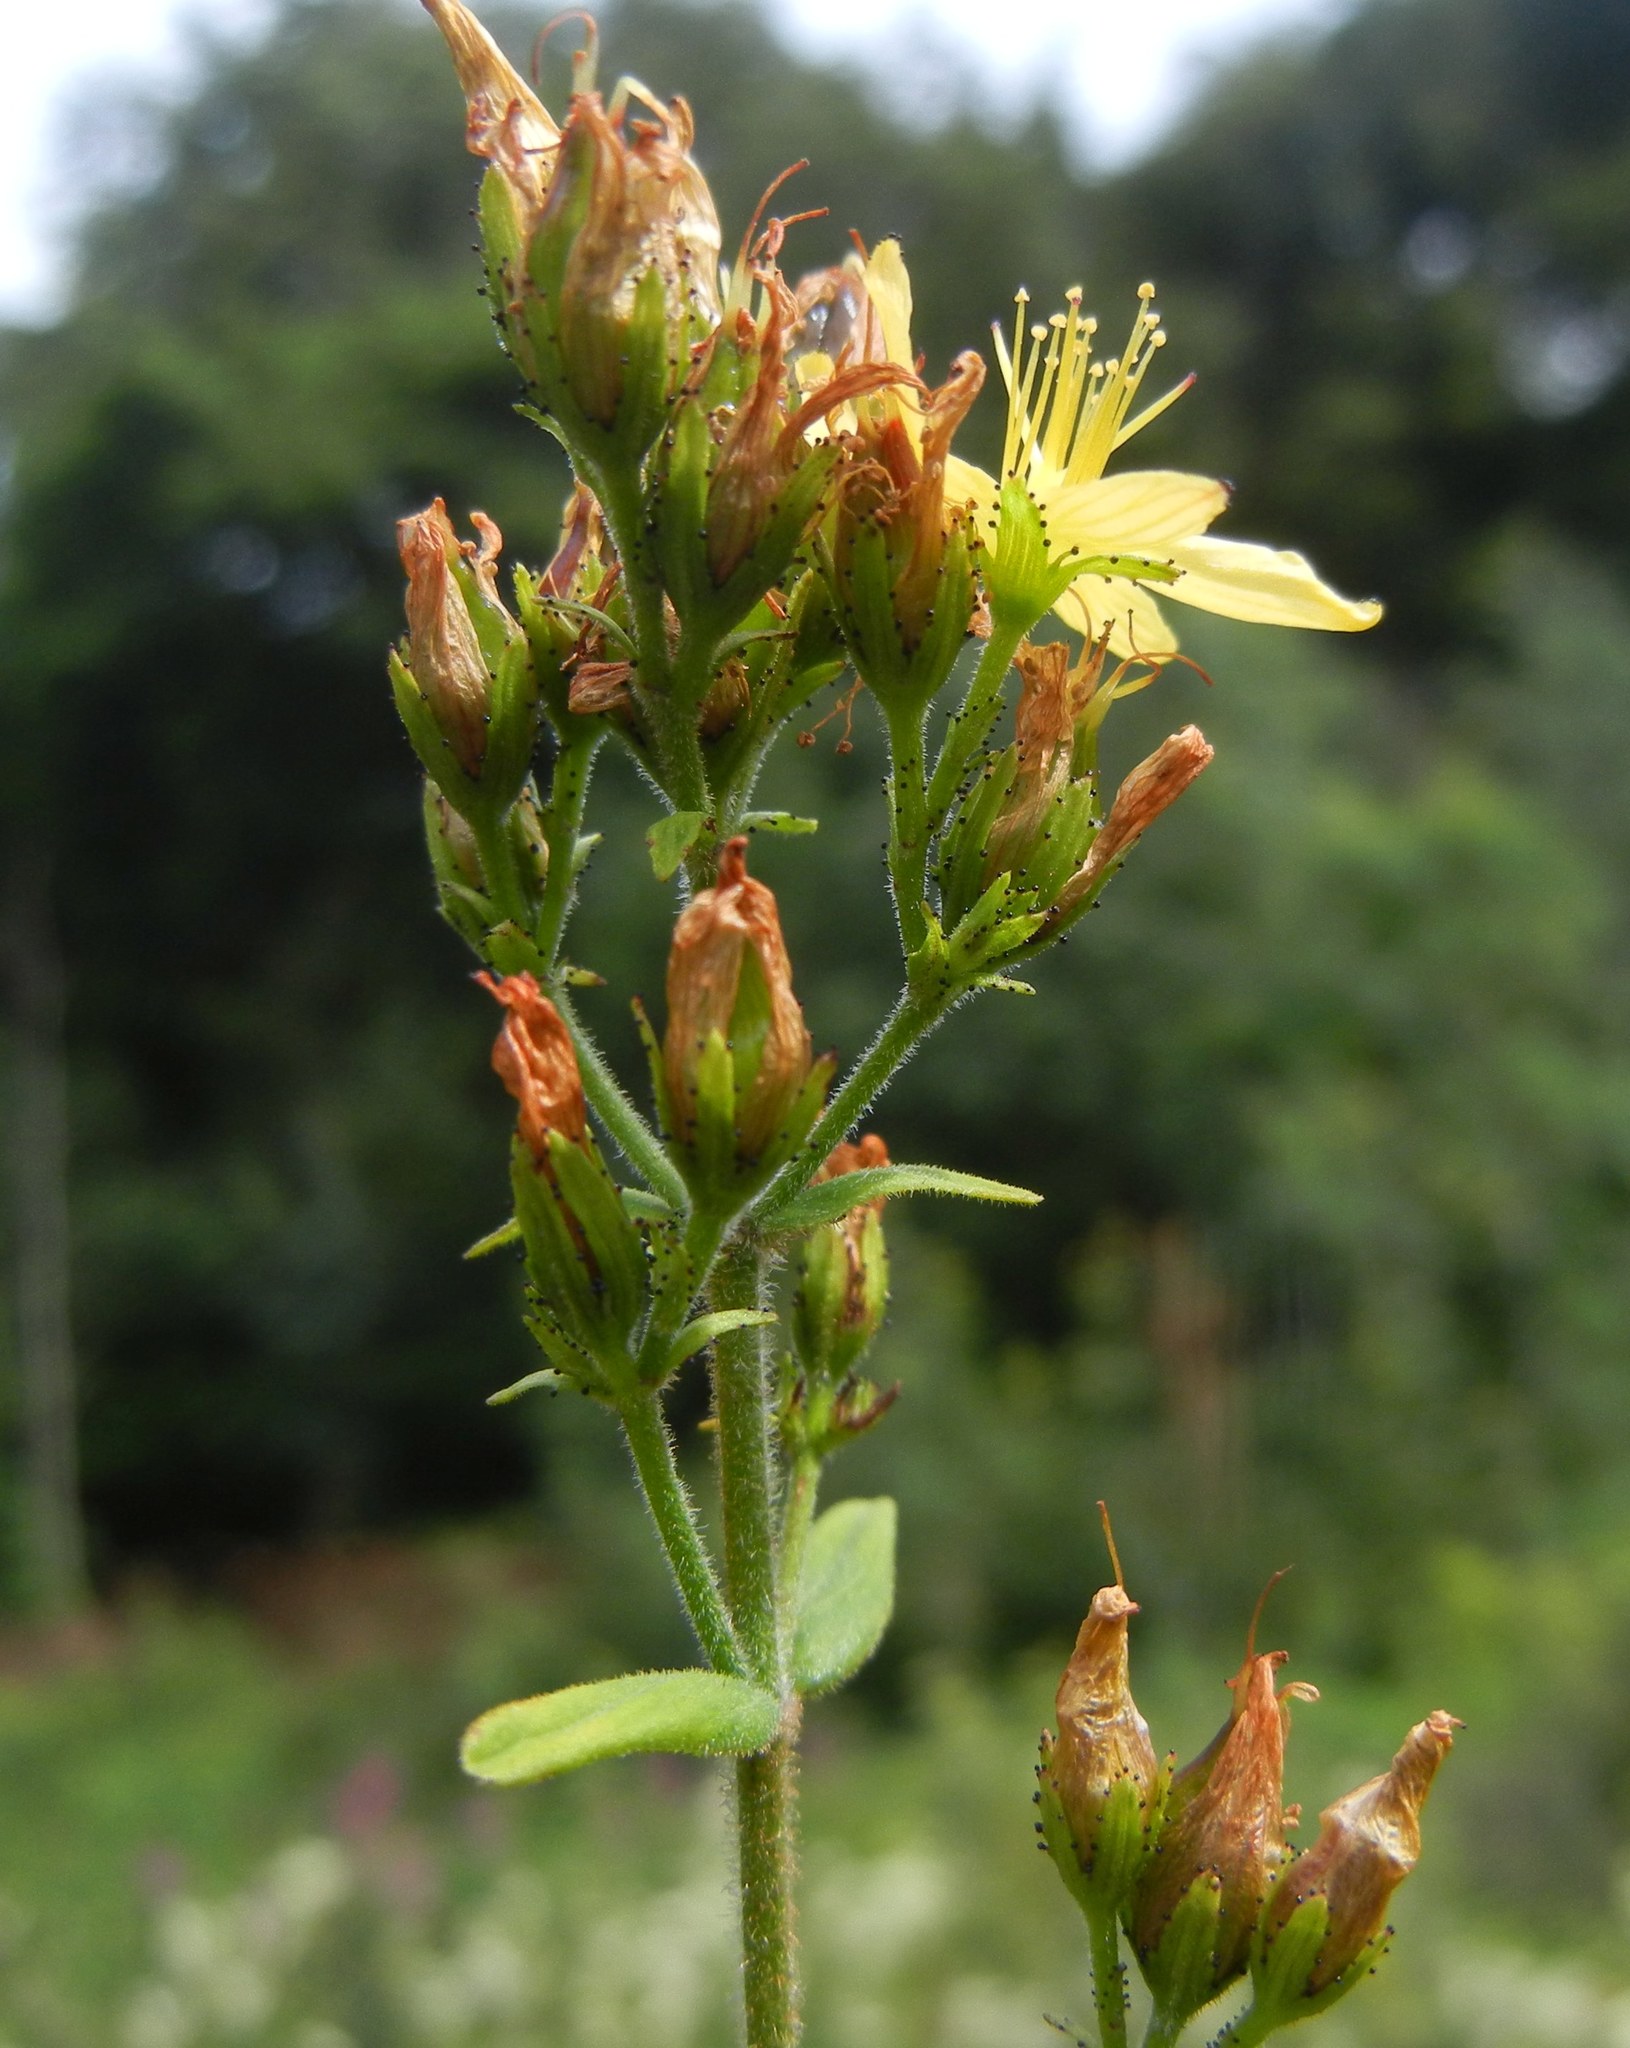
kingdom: Plantae
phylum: Tracheophyta
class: Magnoliopsida
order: Malpighiales
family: Hypericaceae
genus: Hypericum
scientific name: Hypericum hirsutum
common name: Hairy st. john's-wort
